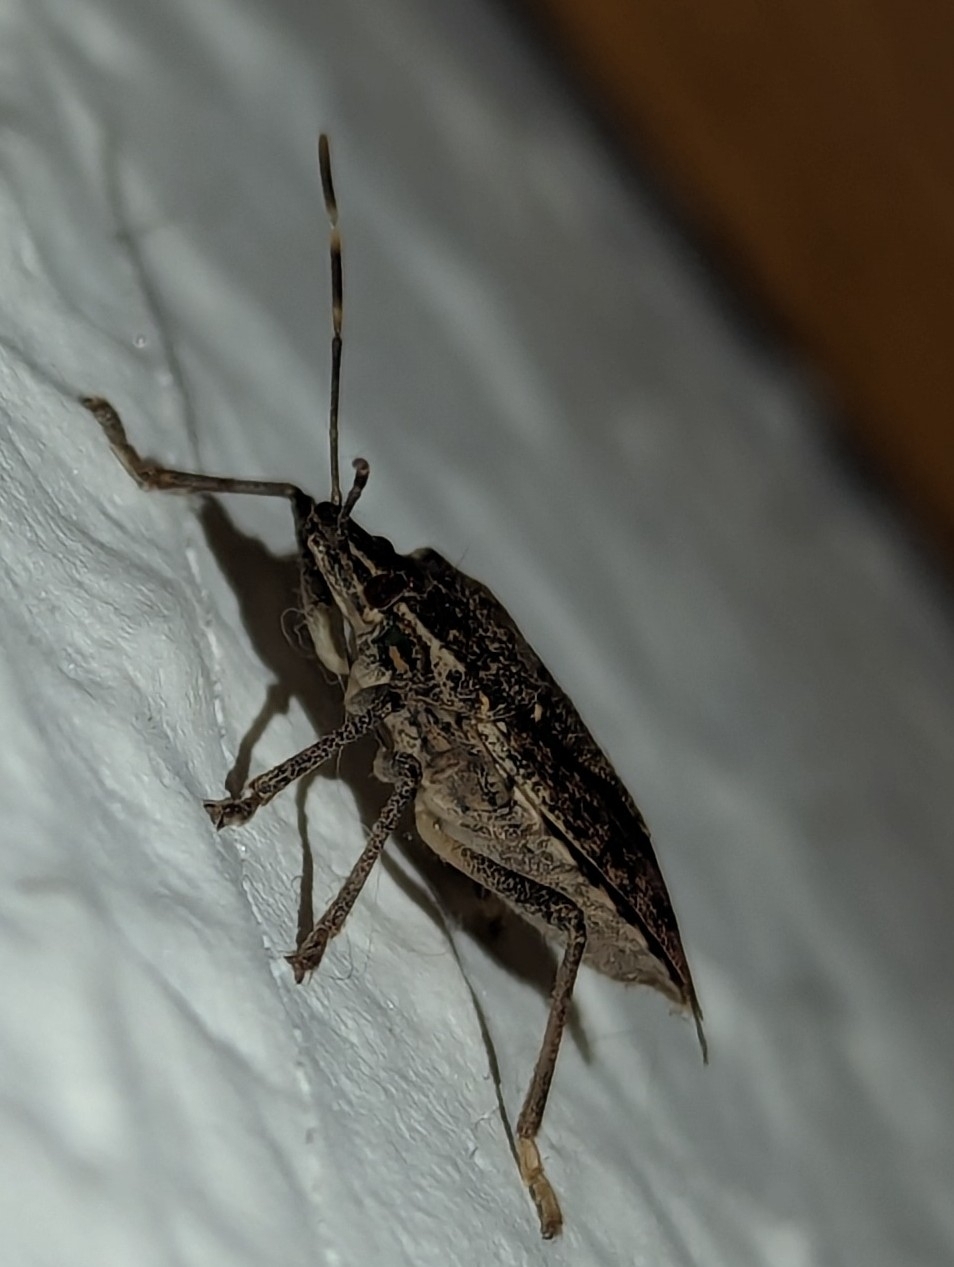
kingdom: Animalia
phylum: Arthropoda
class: Insecta
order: Hemiptera
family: Pentatomidae
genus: Halyomorpha
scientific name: Halyomorpha halys
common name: Brown marmorated stink bug
